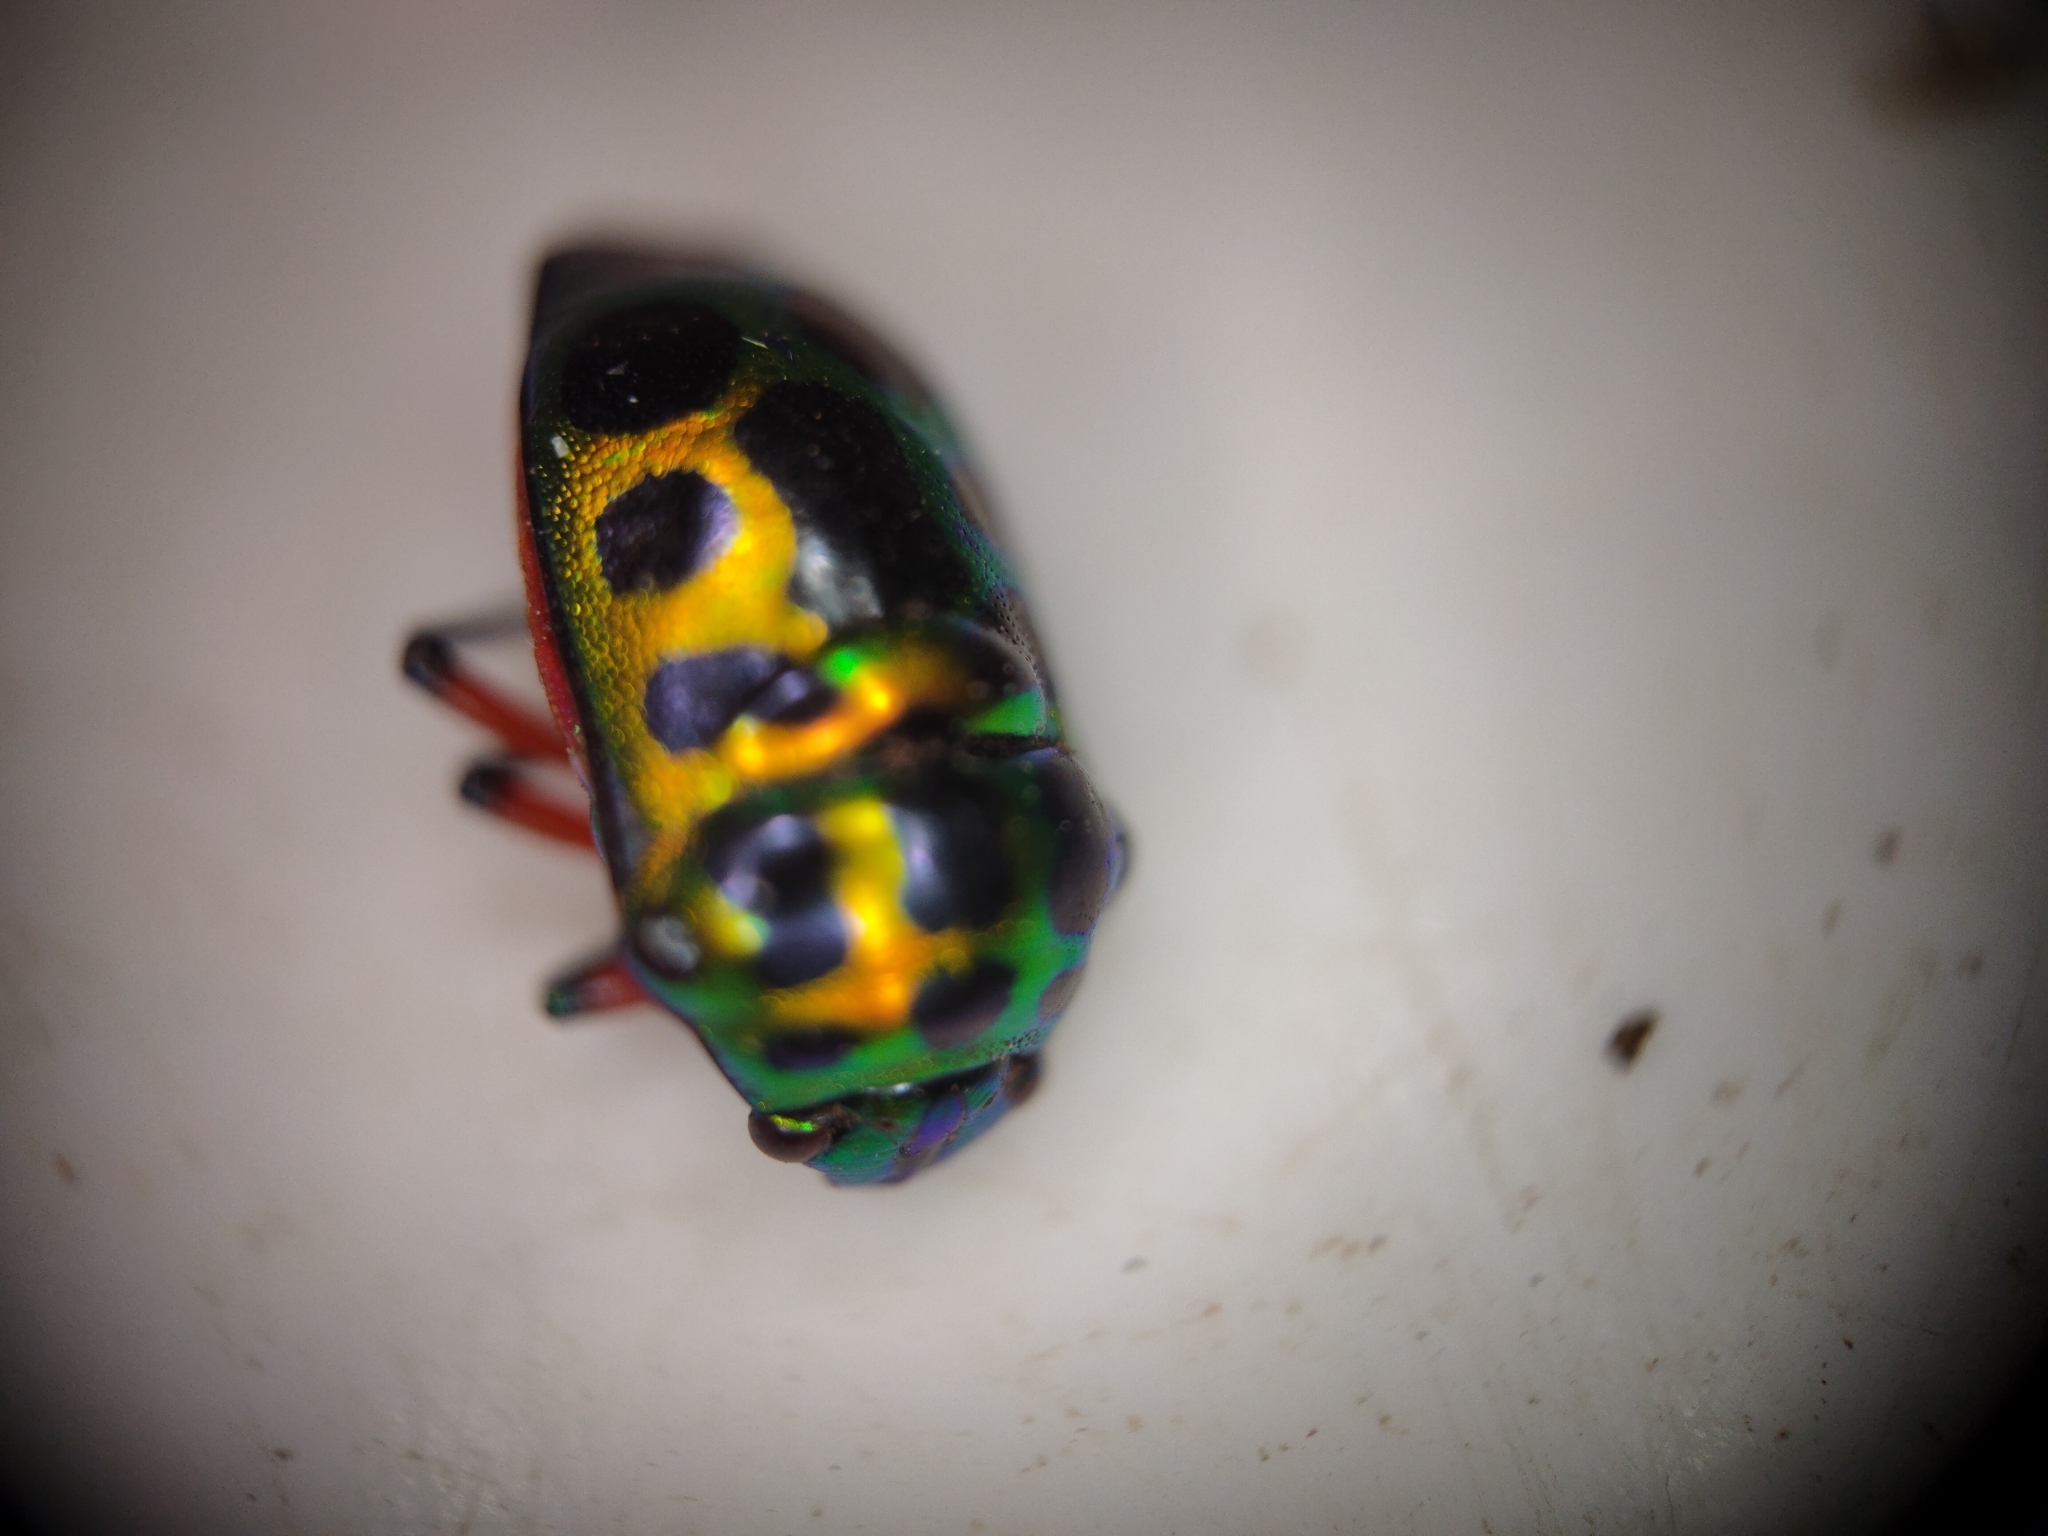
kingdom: Animalia
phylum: Arthropoda
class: Insecta
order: Hemiptera
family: Scutelleridae
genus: Chrysocoris
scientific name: Chrysocoris stollii
